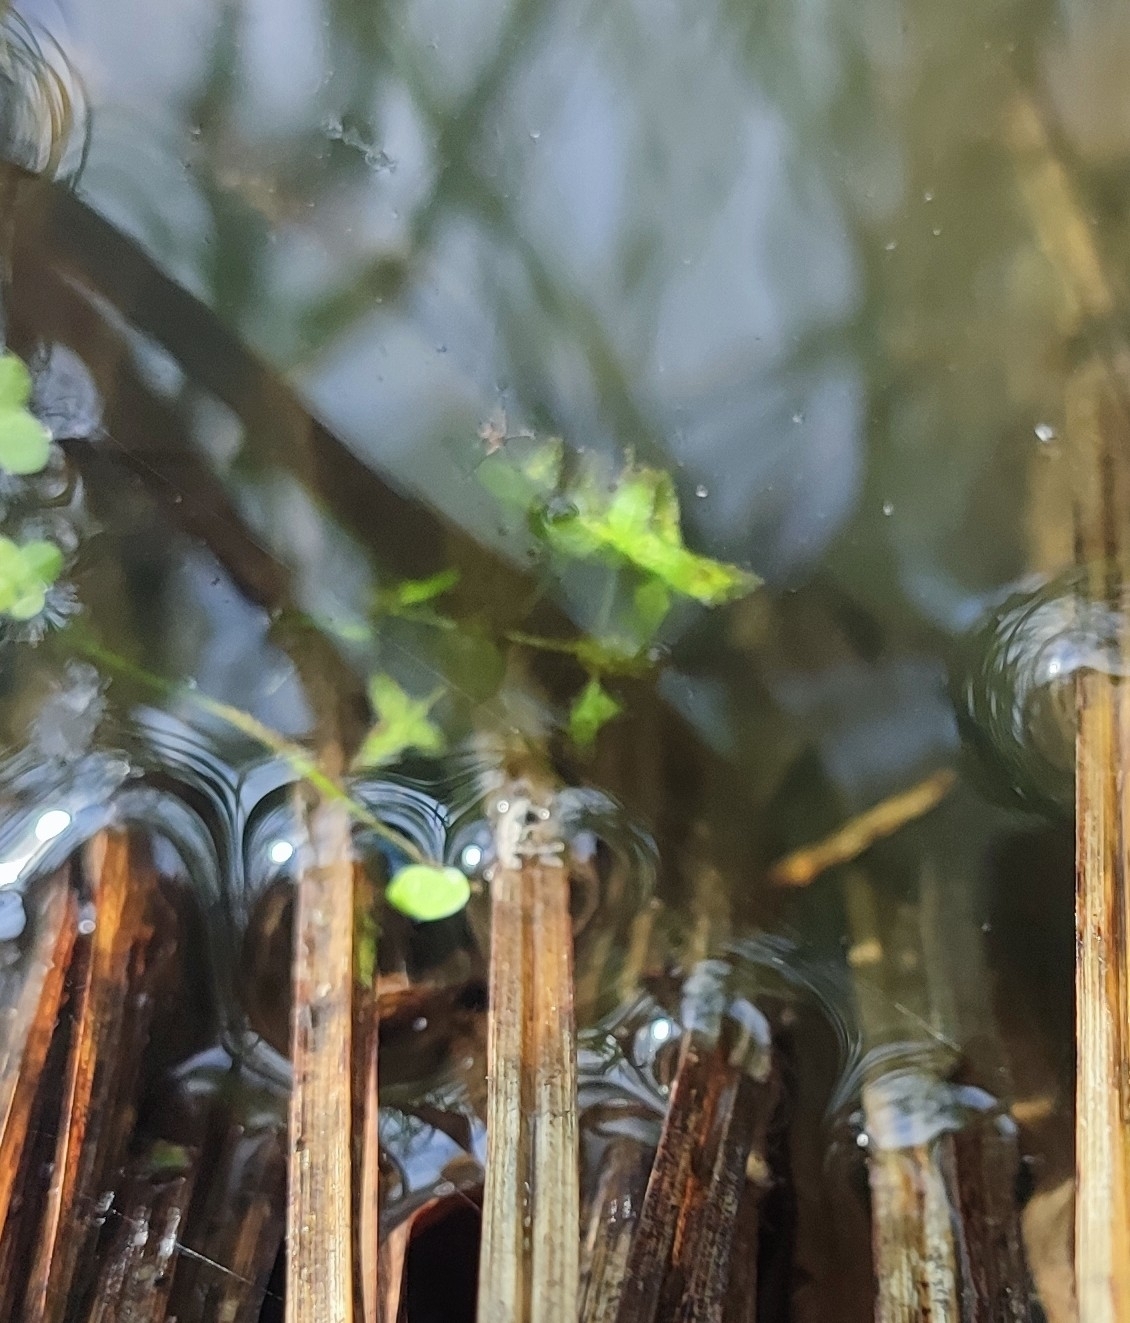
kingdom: Plantae
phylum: Tracheophyta
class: Liliopsida
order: Alismatales
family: Araceae
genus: Lemna
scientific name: Lemna trisulca
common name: Ivy-leaved duckweed
